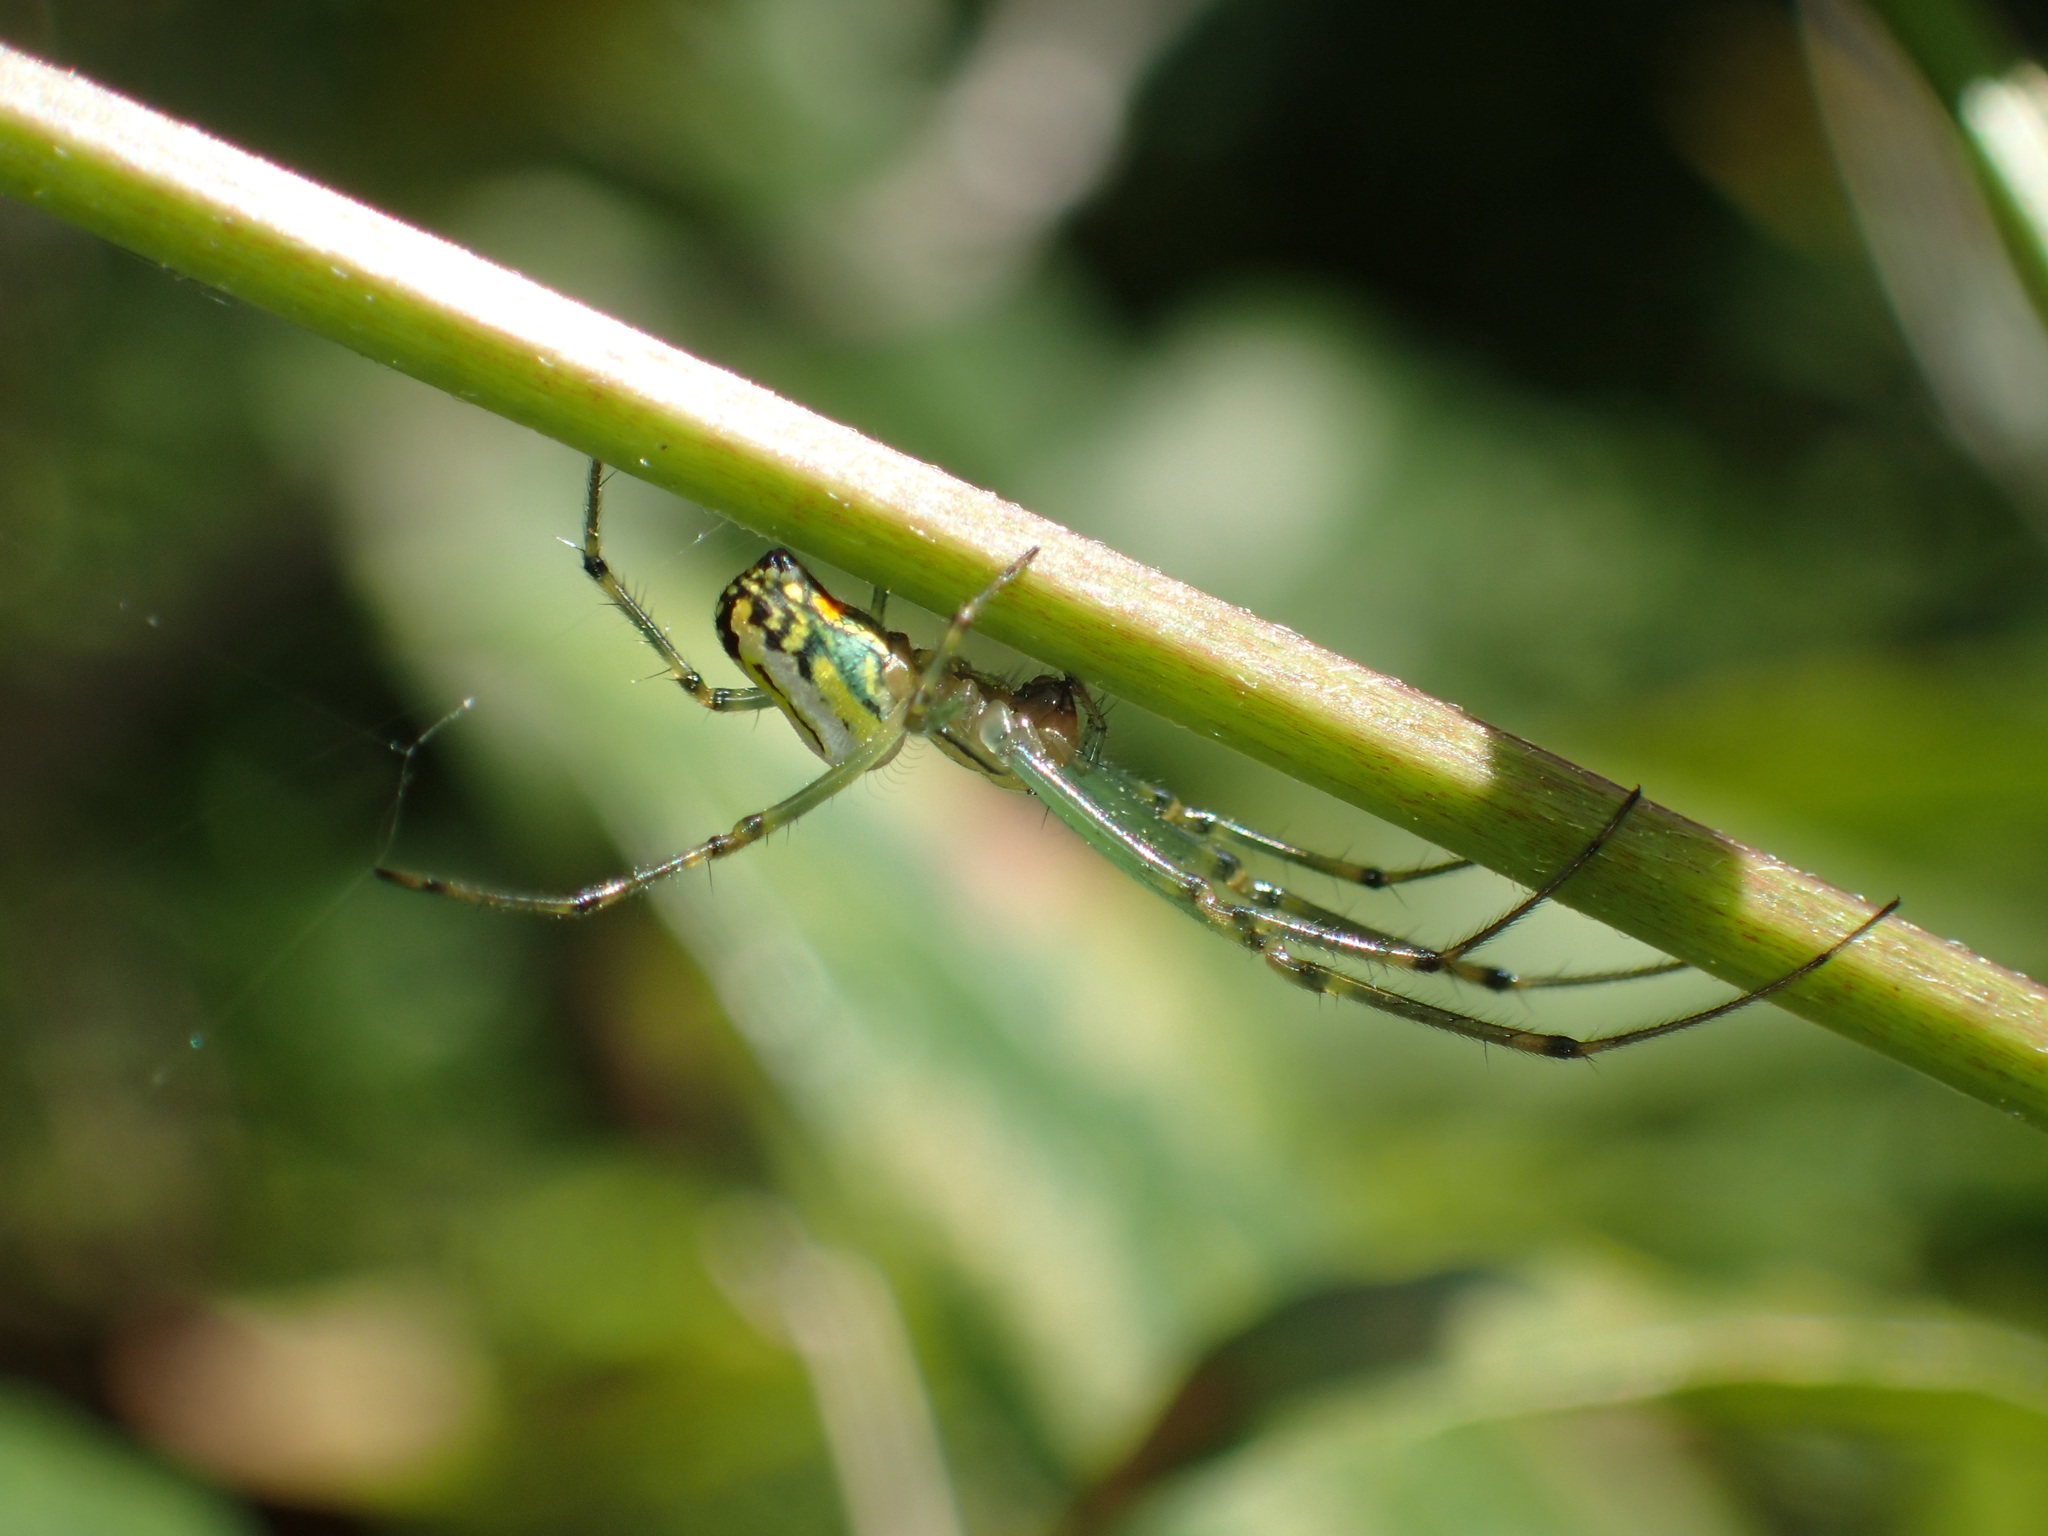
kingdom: Animalia
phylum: Arthropoda
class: Arachnida
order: Araneae
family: Tetragnathidae
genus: Leucauge
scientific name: Leucauge venusta
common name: Longjawed orb weavers
